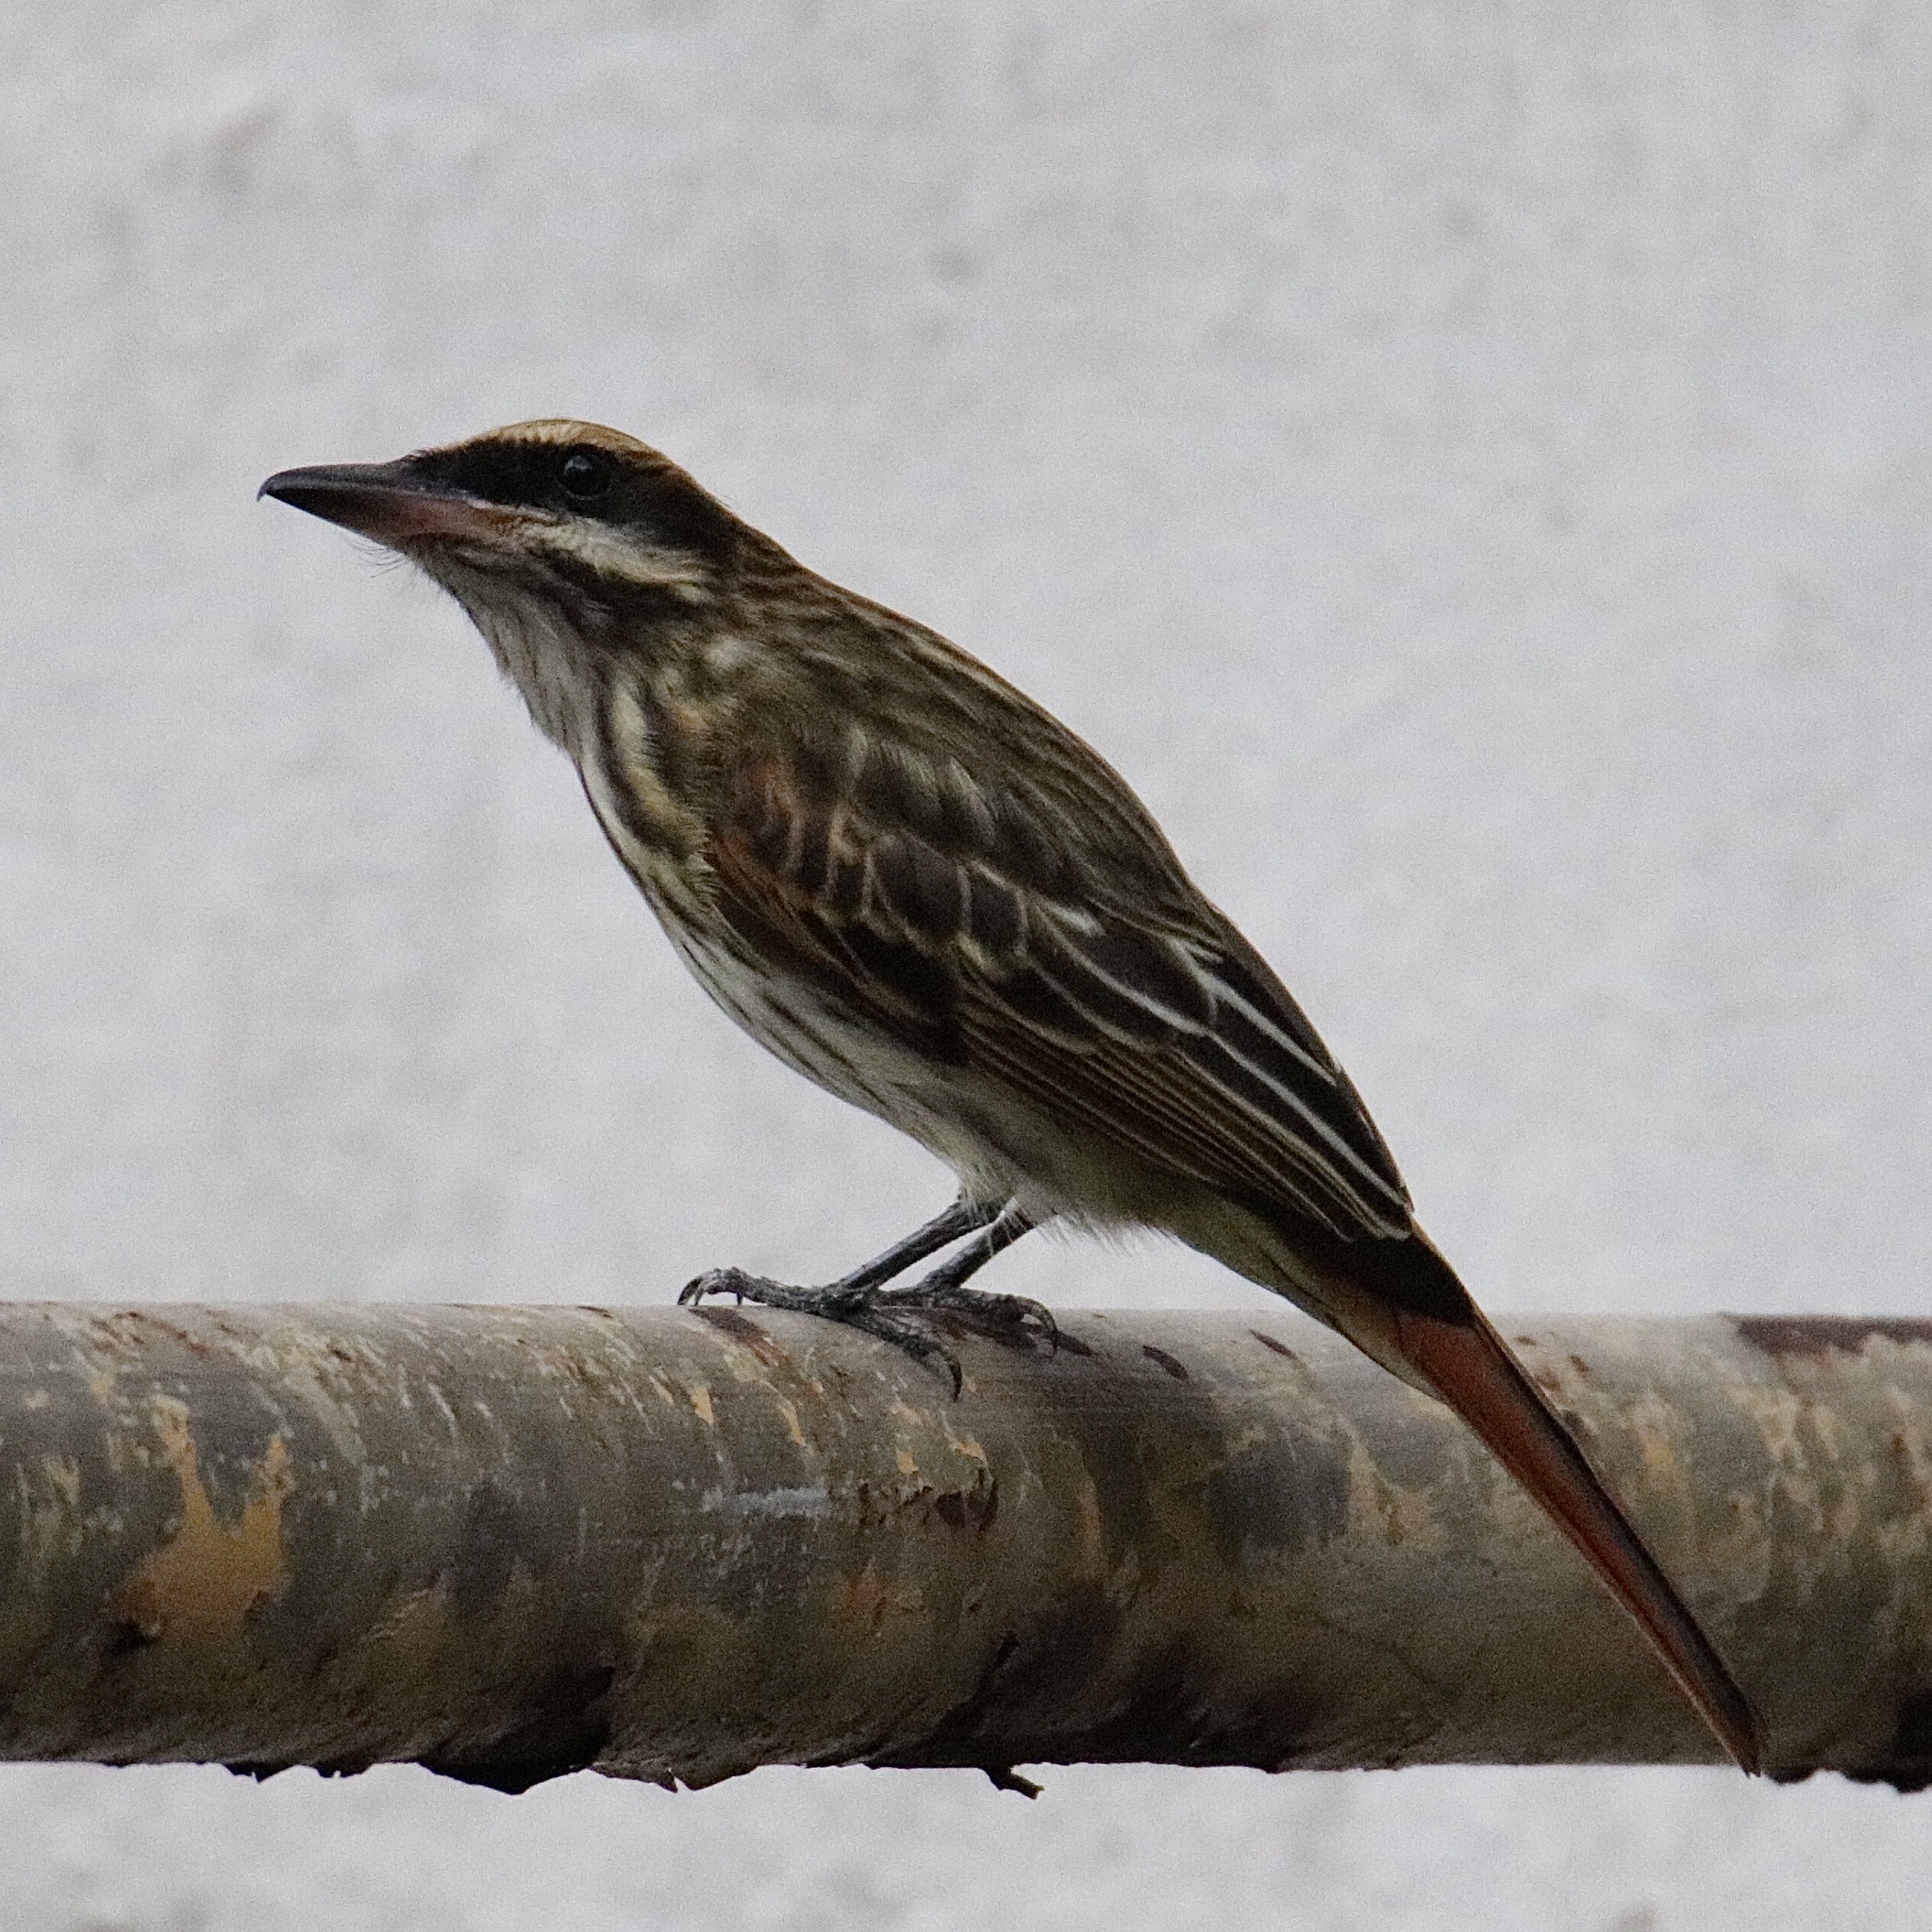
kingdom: Animalia
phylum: Chordata
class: Aves
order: Passeriformes
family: Tyrannidae
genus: Myiodynastes
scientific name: Myiodynastes maculatus
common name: Streaked flycatcher
